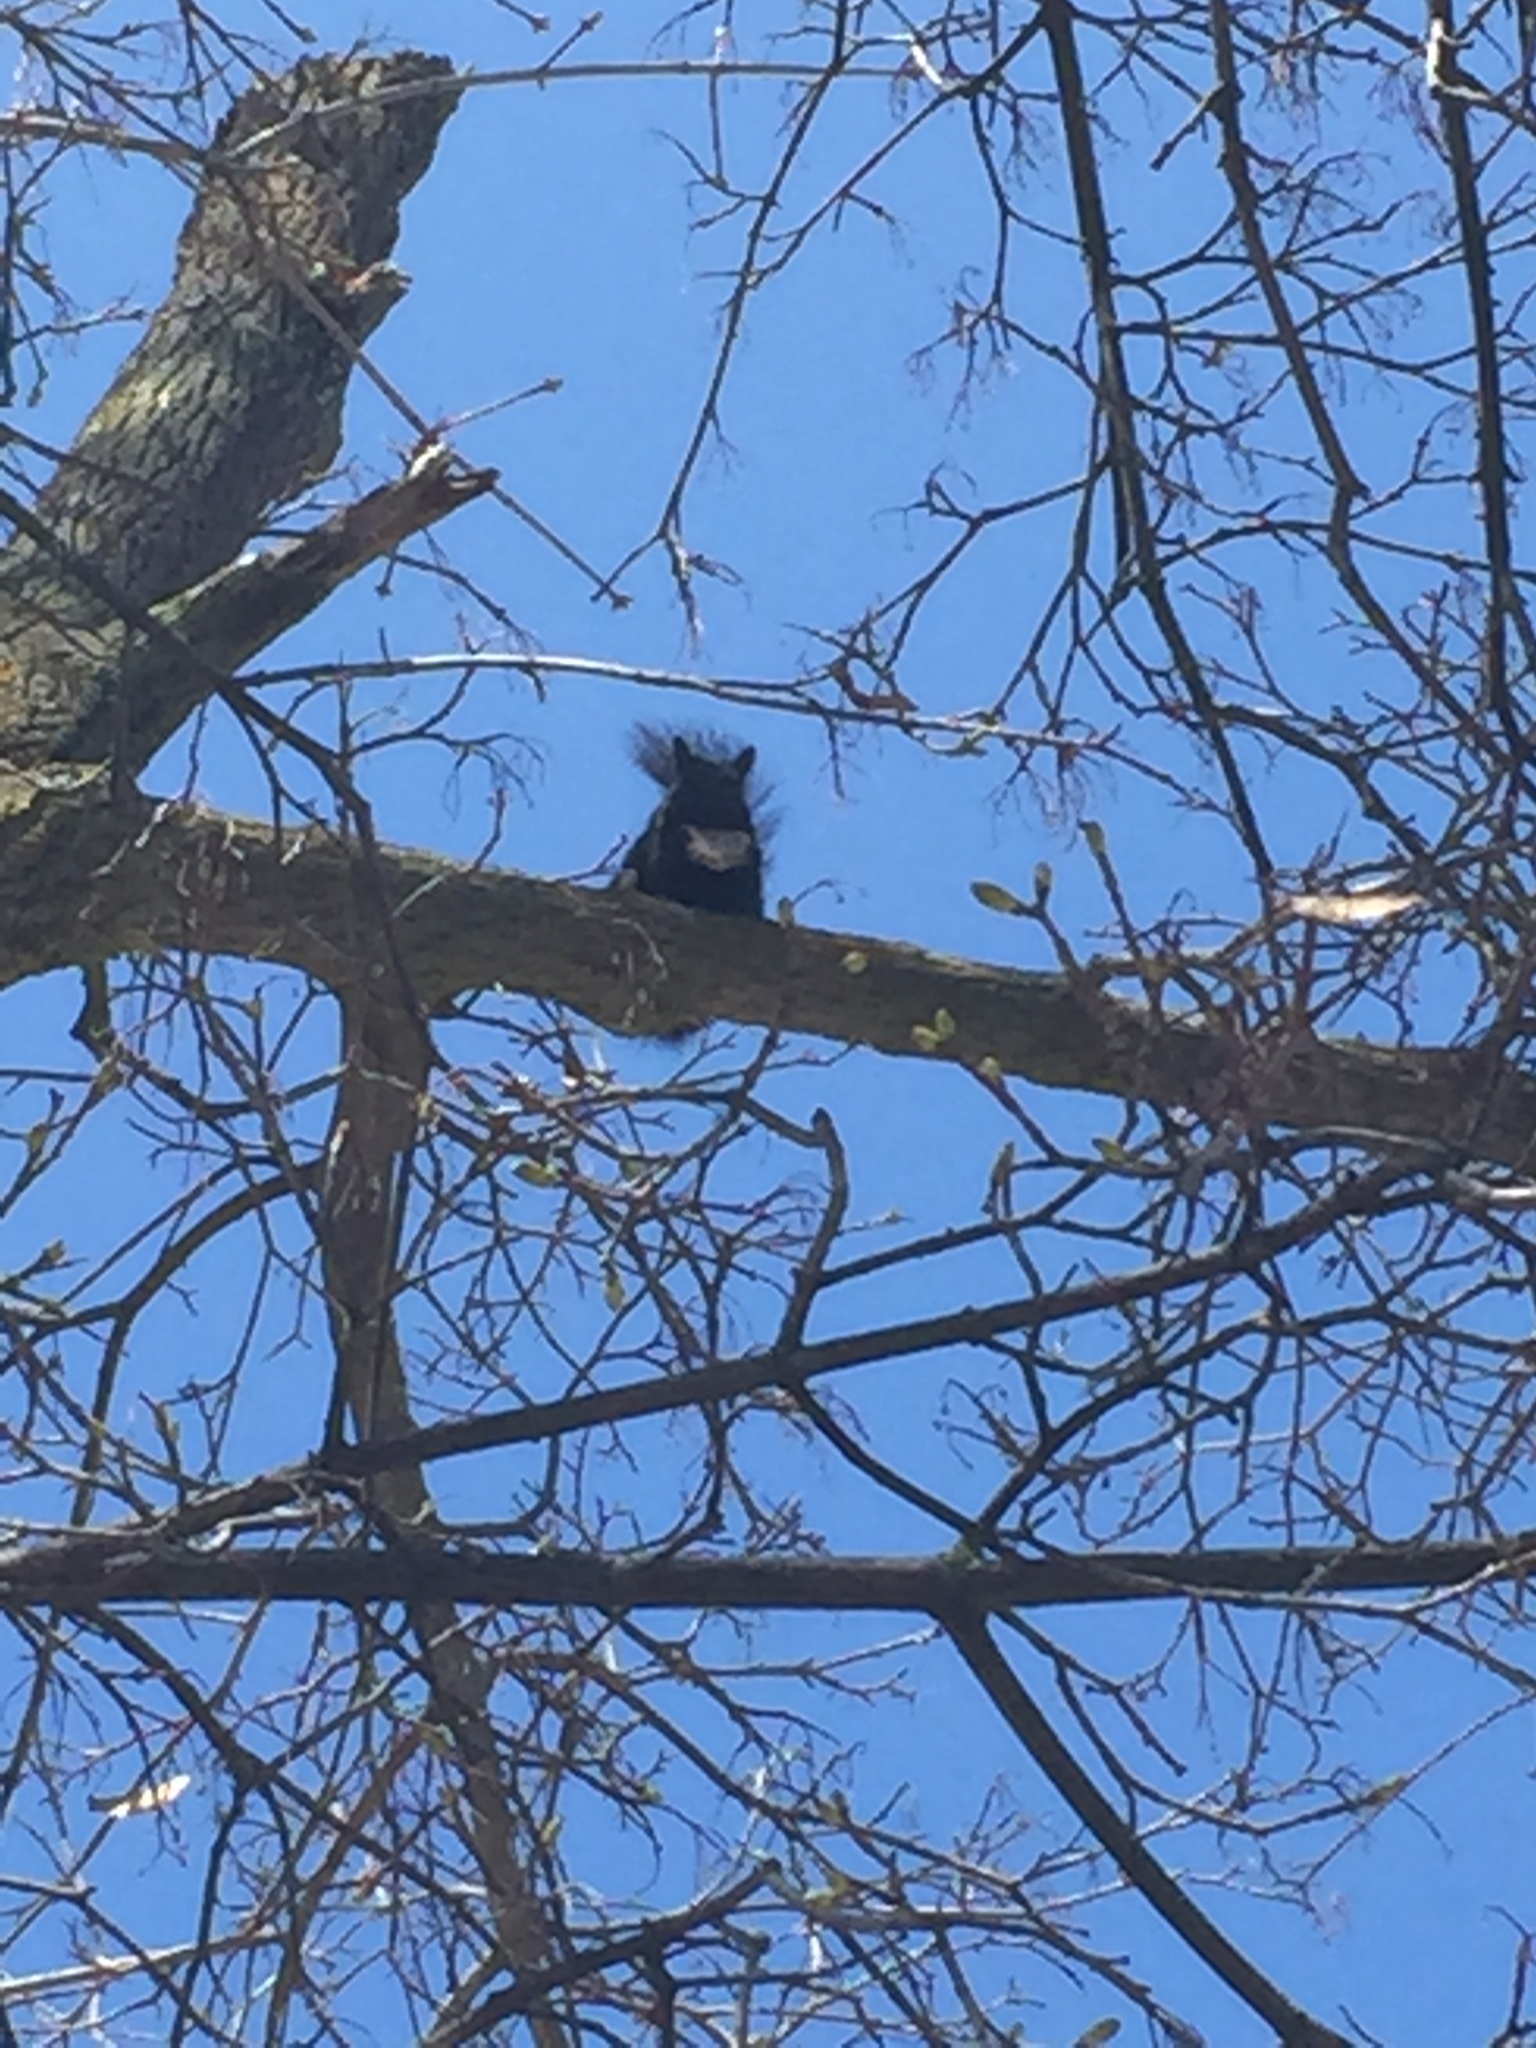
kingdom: Animalia
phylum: Chordata
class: Mammalia
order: Rodentia
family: Sciuridae
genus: Sciurus
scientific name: Sciurus carolinensis
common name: Eastern gray squirrel
